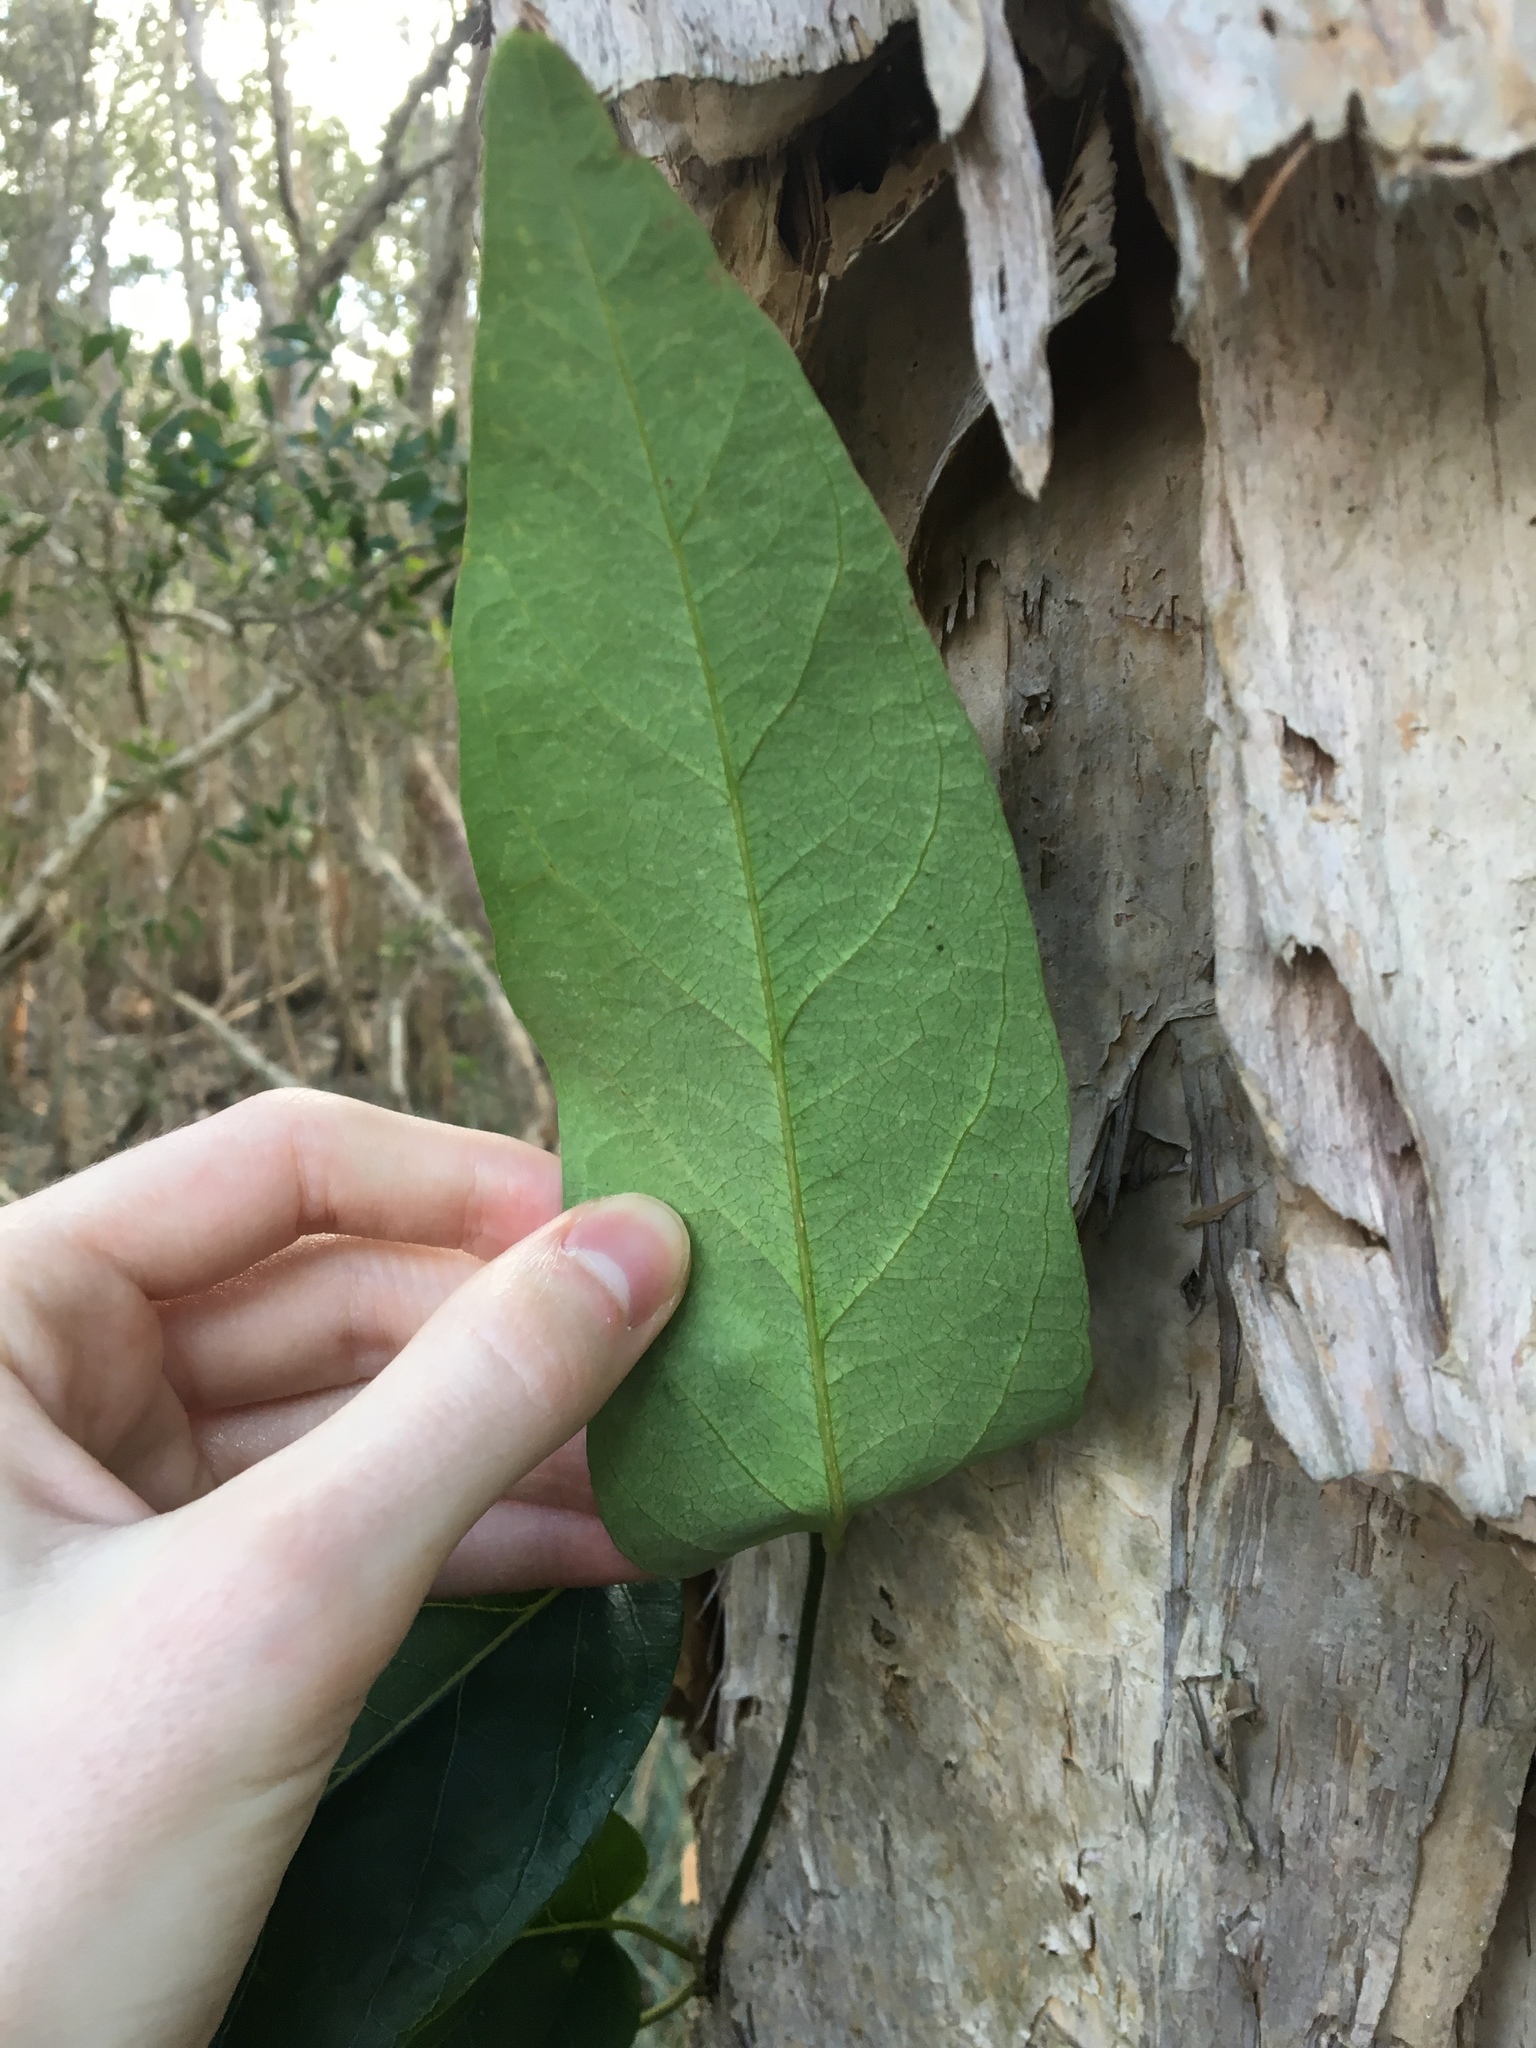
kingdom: Plantae
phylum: Tracheophyta
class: Magnoliopsida
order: Gentianales
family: Apocynaceae
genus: Parsonsia
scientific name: Parsonsia straminea
